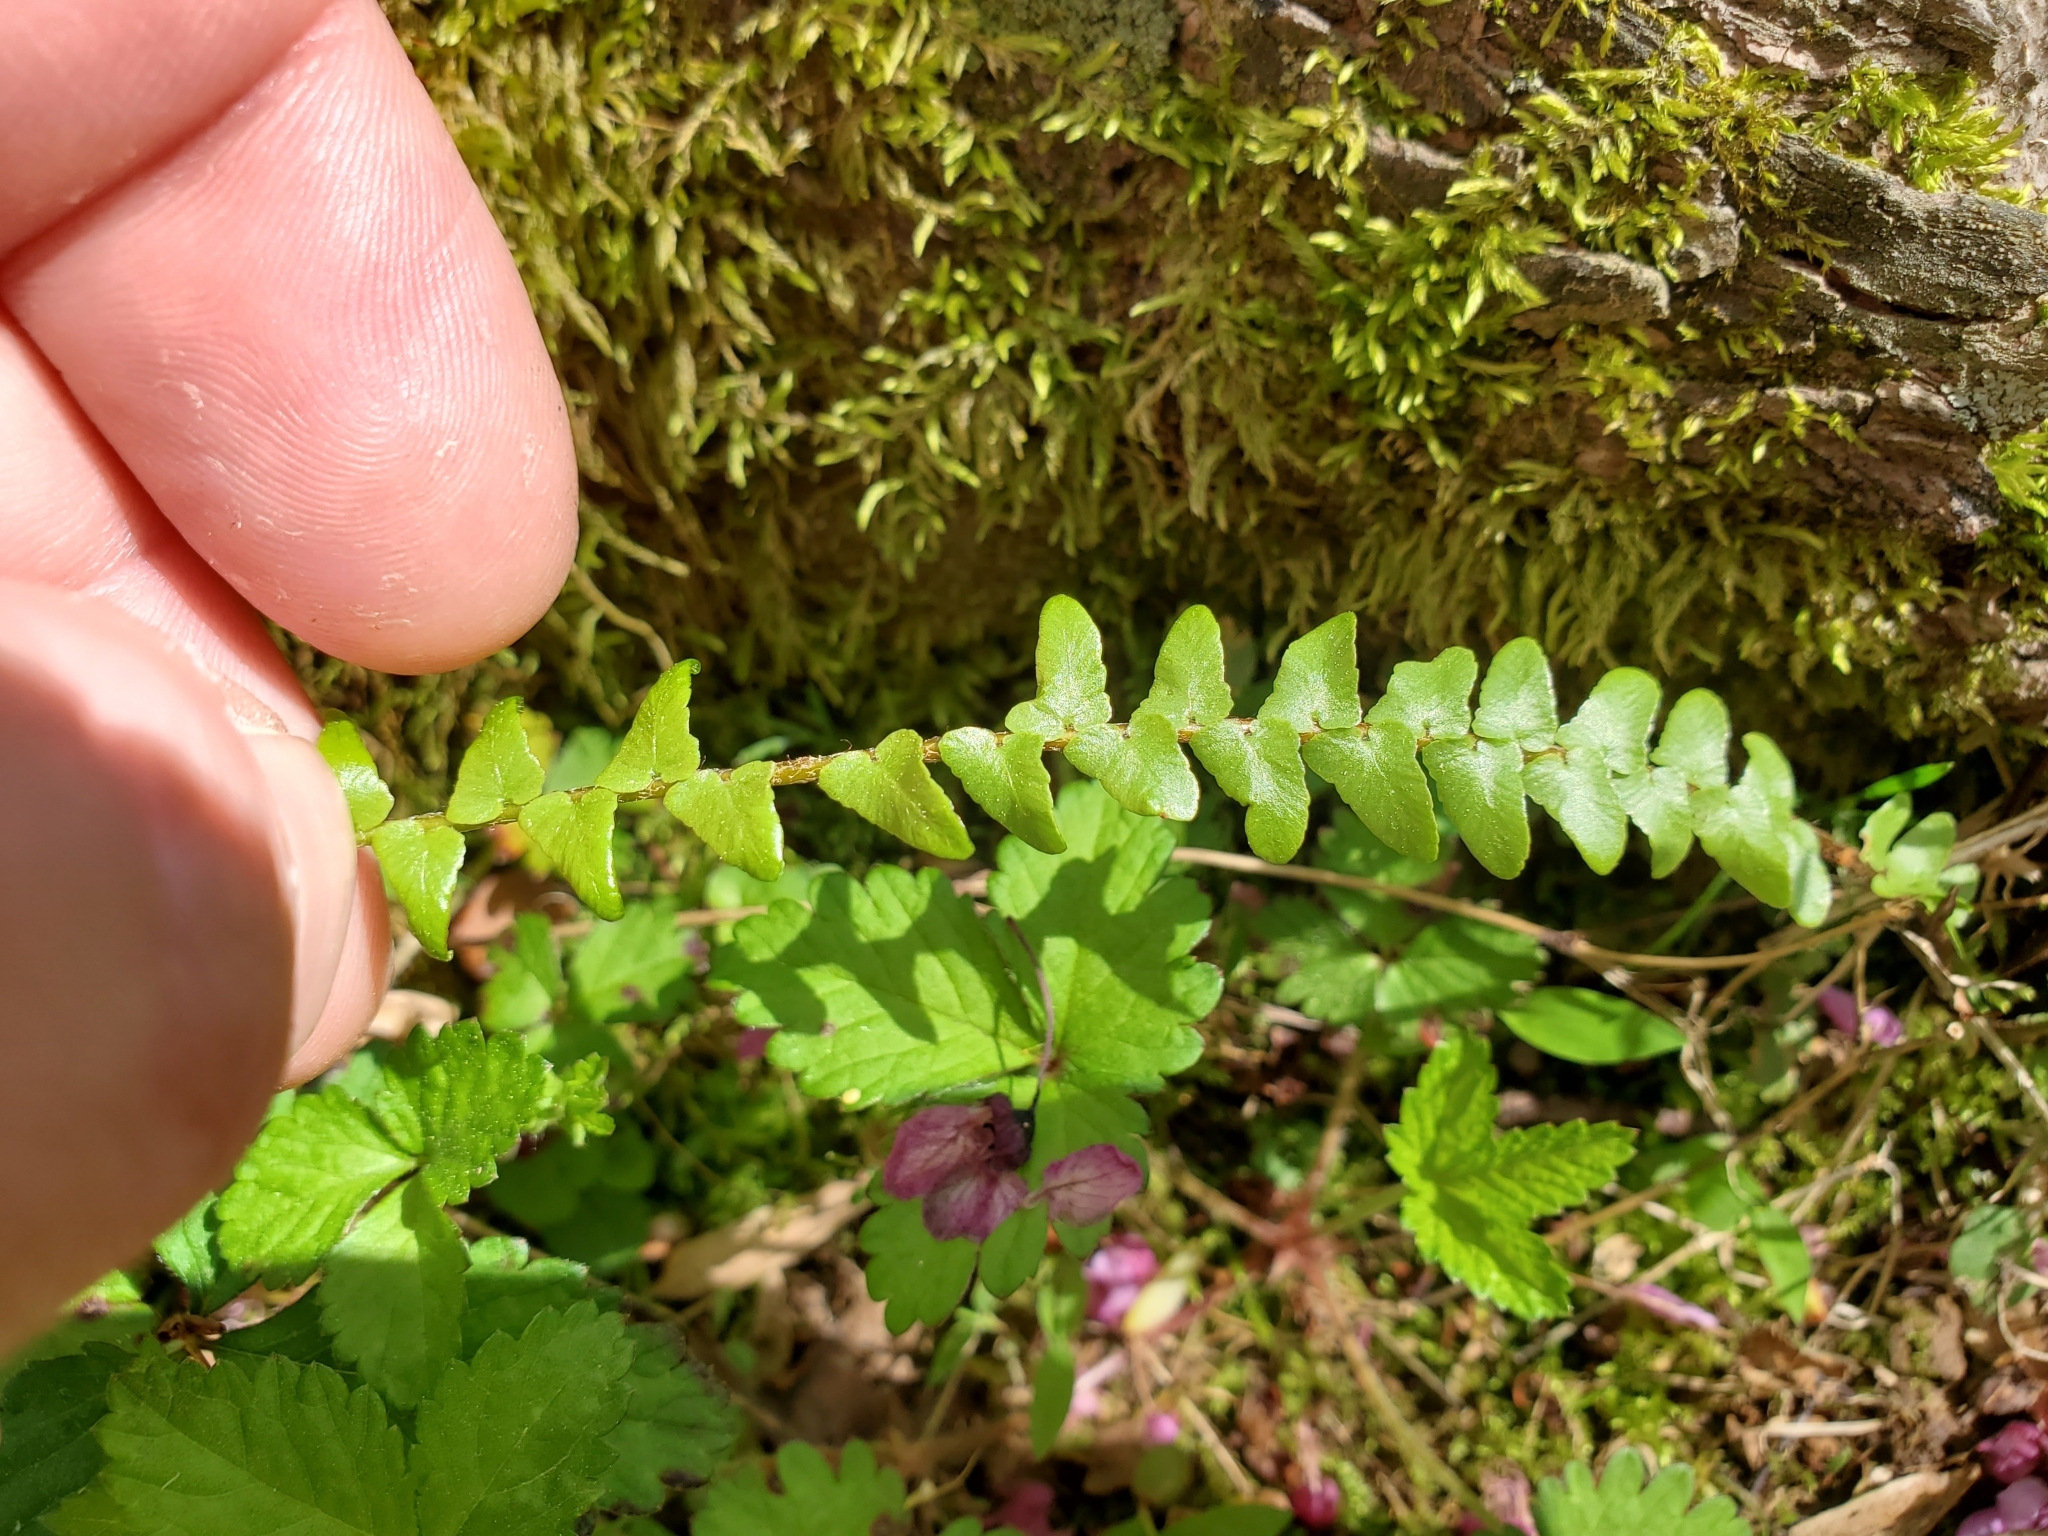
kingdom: Plantae
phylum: Tracheophyta
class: Polypodiopsida
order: Polypodiales
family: Aspleniaceae
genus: Asplenium
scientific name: Asplenium platyneuron
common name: Ebony spleenwort
